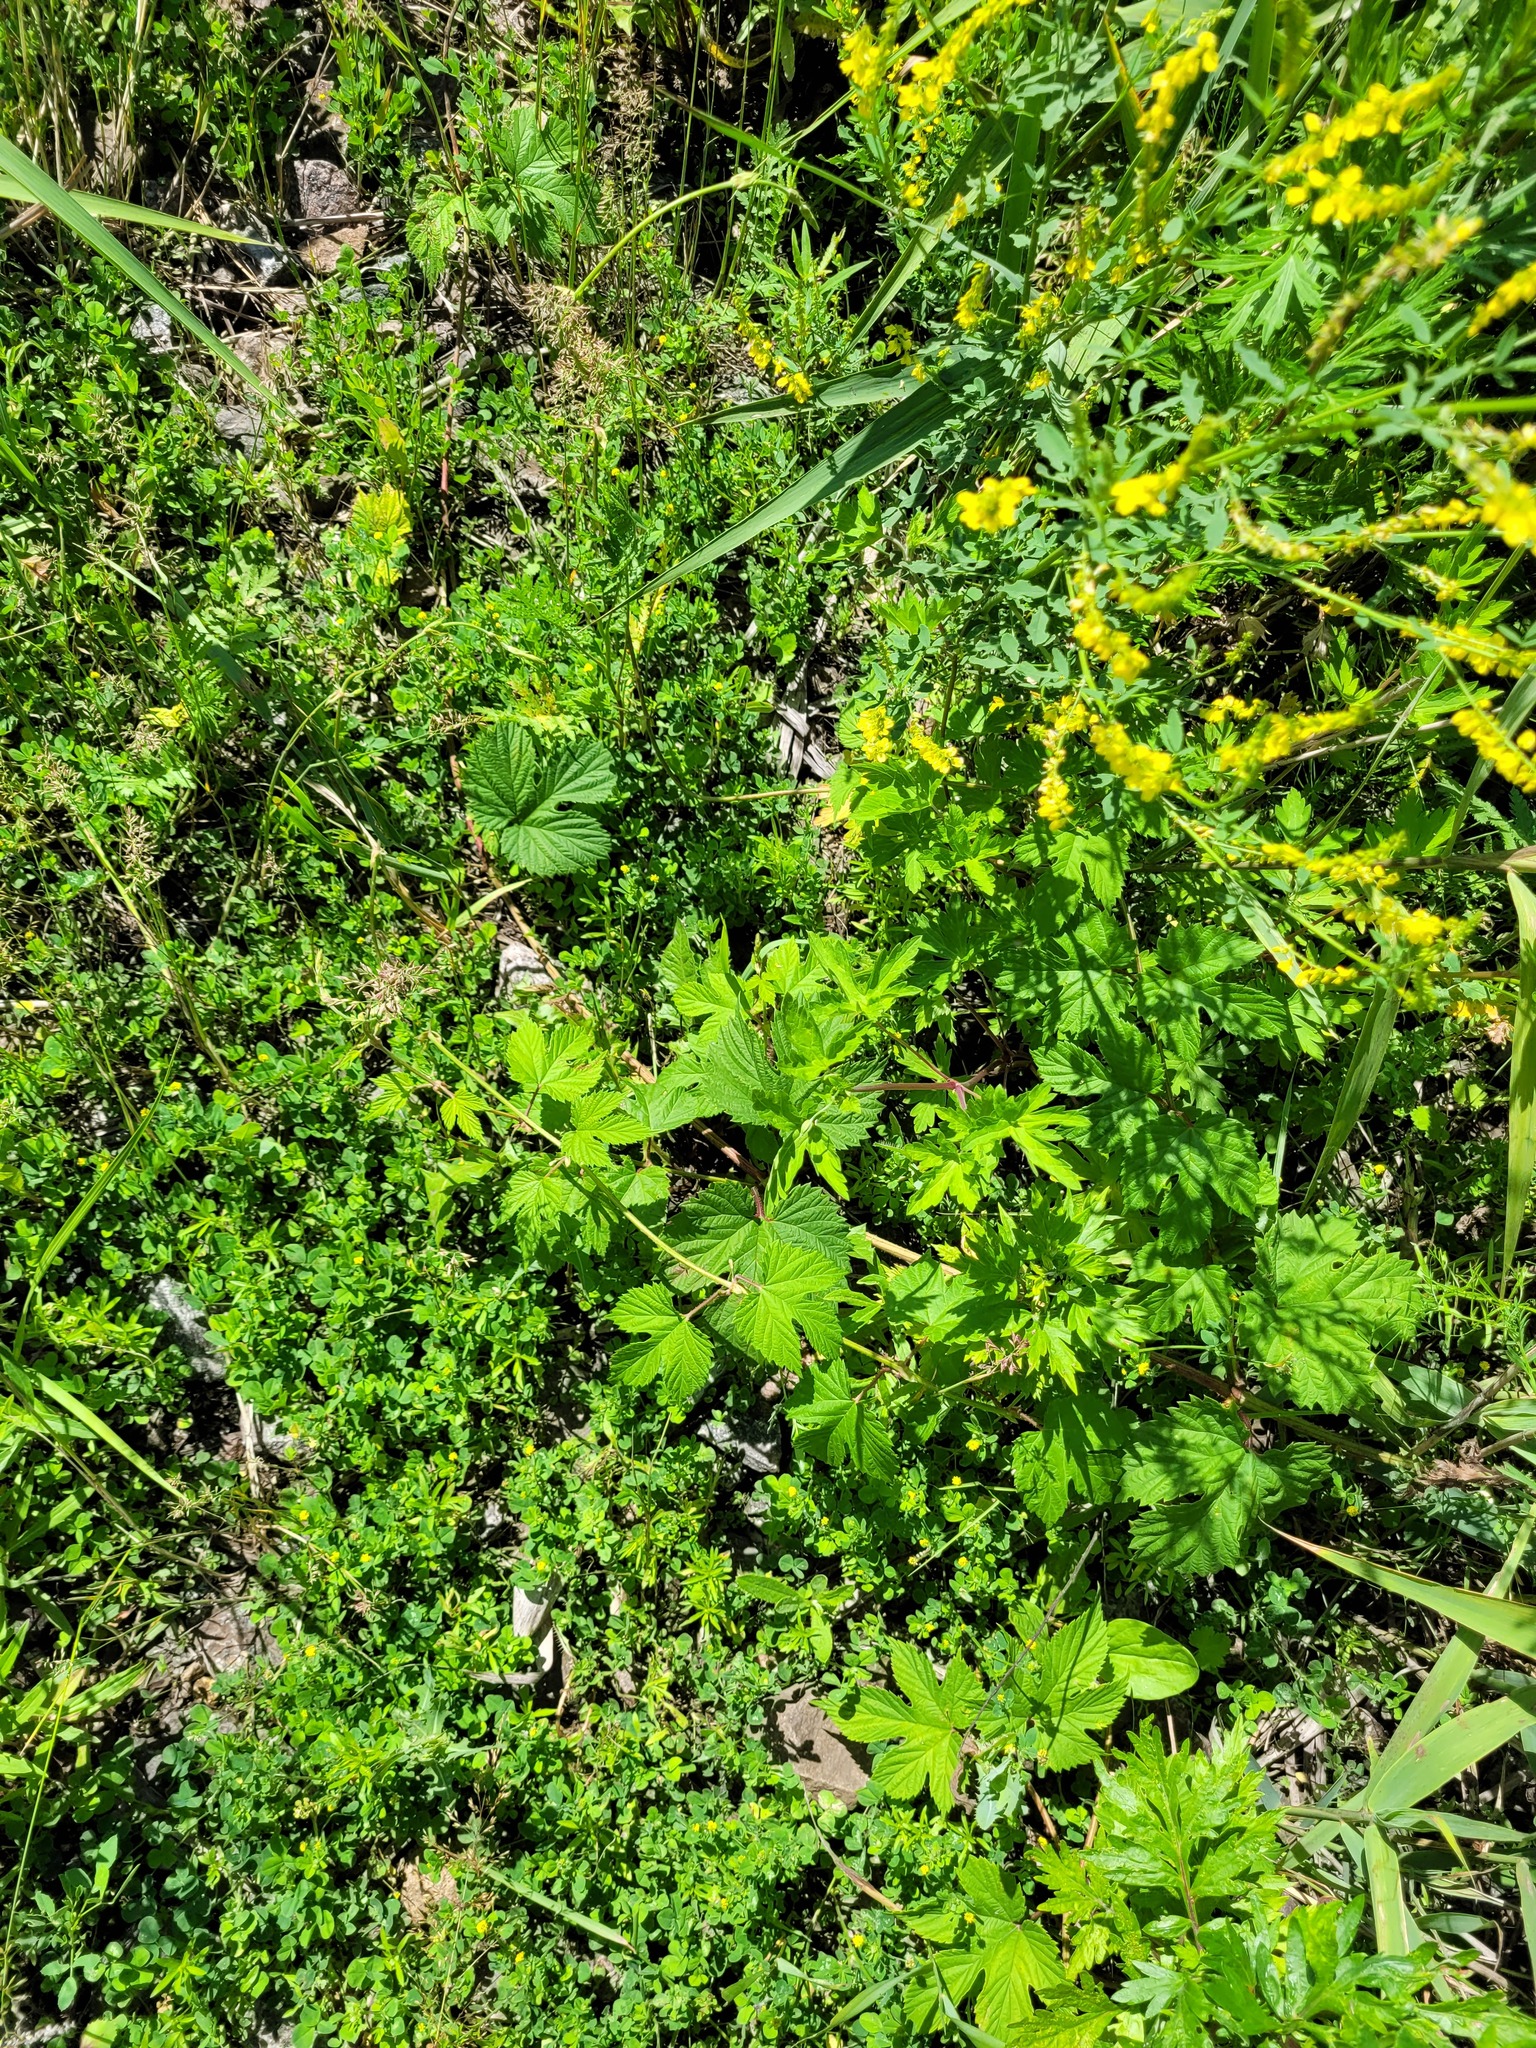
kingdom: Plantae
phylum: Tracheophyta
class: Magnoliopsida
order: Rosales
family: Cannabaceae
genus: Humulus
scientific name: Humulus lupulus
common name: Hop
